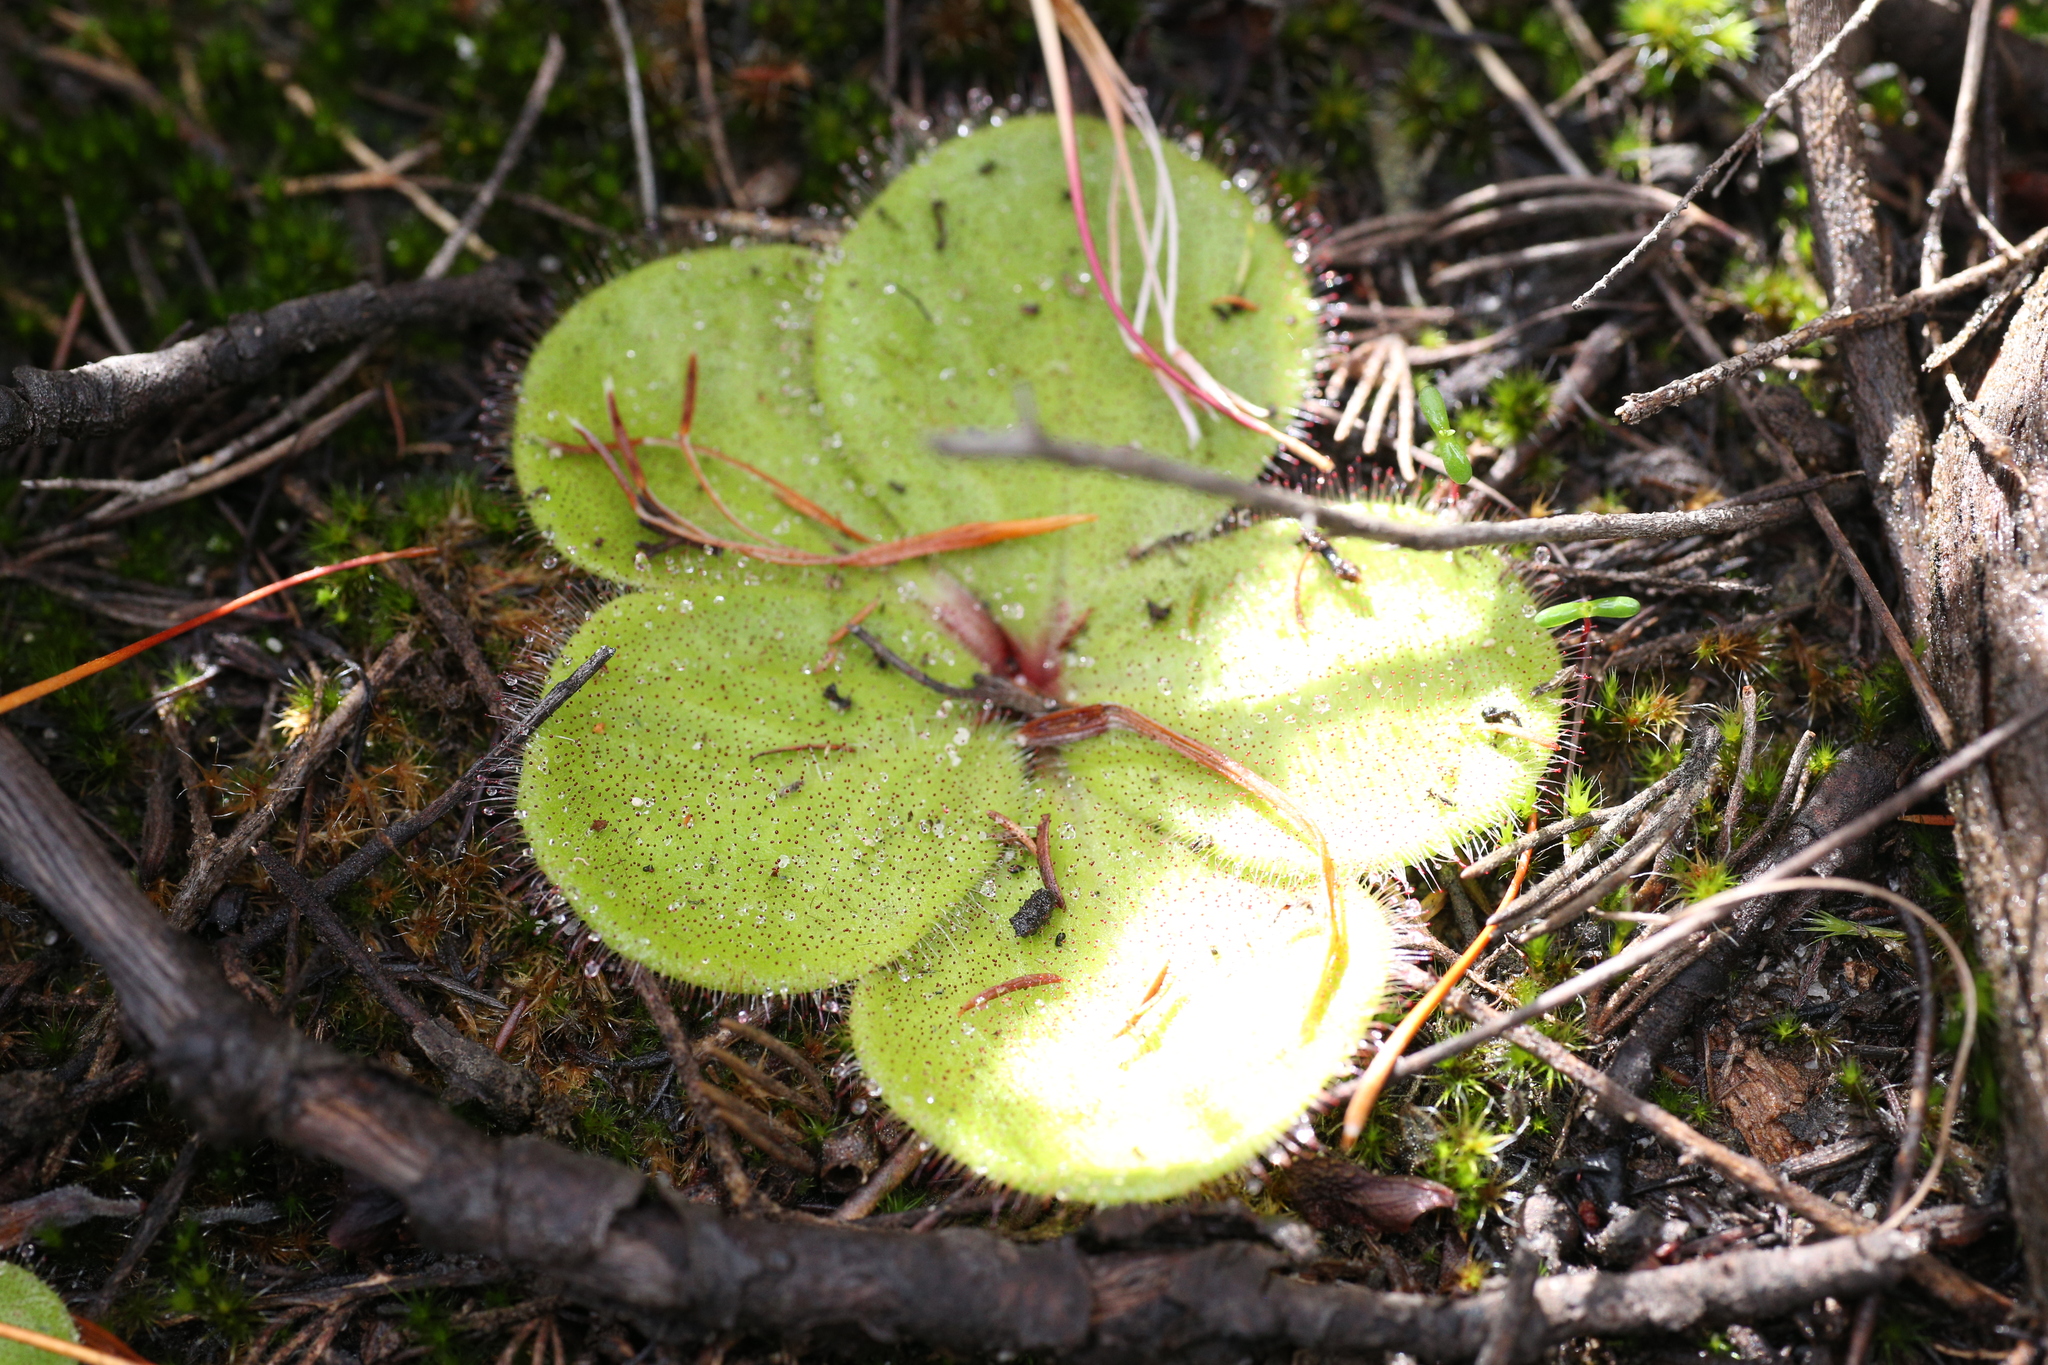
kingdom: Plantae
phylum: Tracheophyta
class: Magnoliopsida
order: Caryophyllales
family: Droseraceae
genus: Drosera
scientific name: Drosera erythrorhiza
